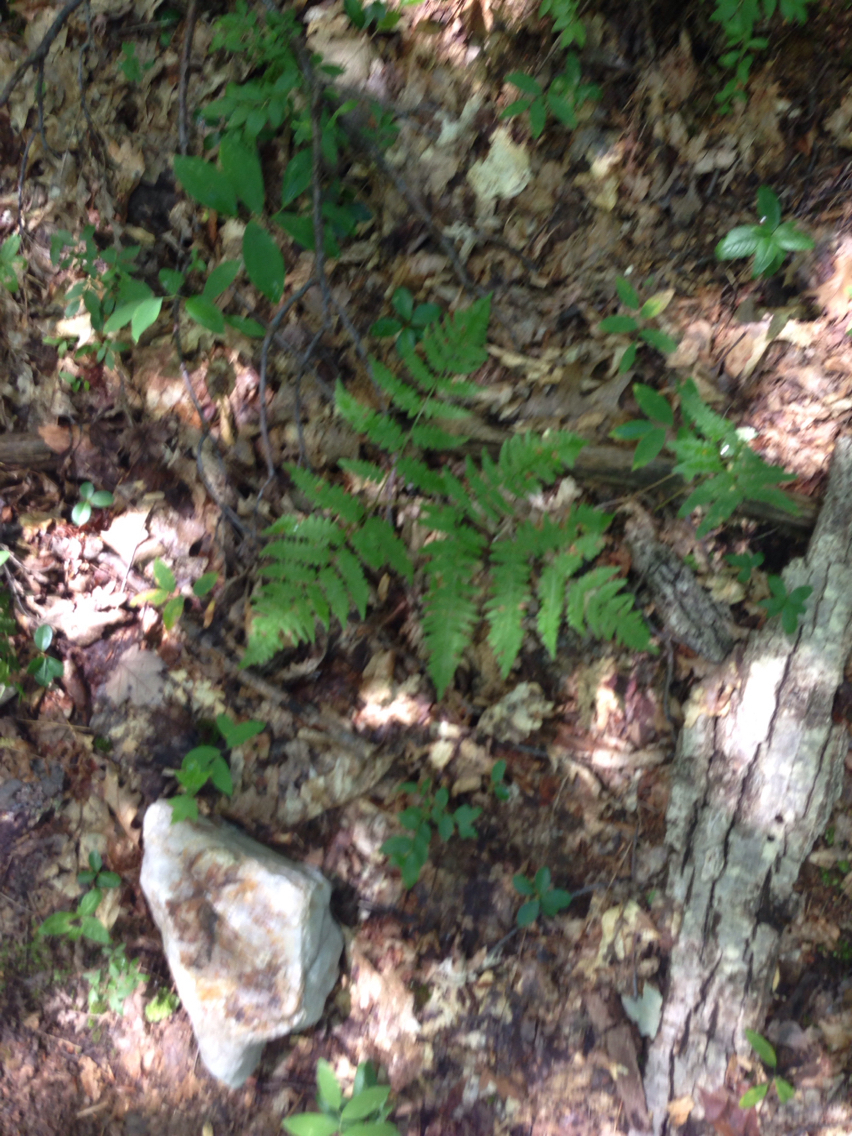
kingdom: Plantae
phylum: Tracheophyta
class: Polypodiopsida
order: Polypodiales
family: Dennstaedtiaceae
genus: Pteridium
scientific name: Pteridium aquilinum
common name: Bracken
